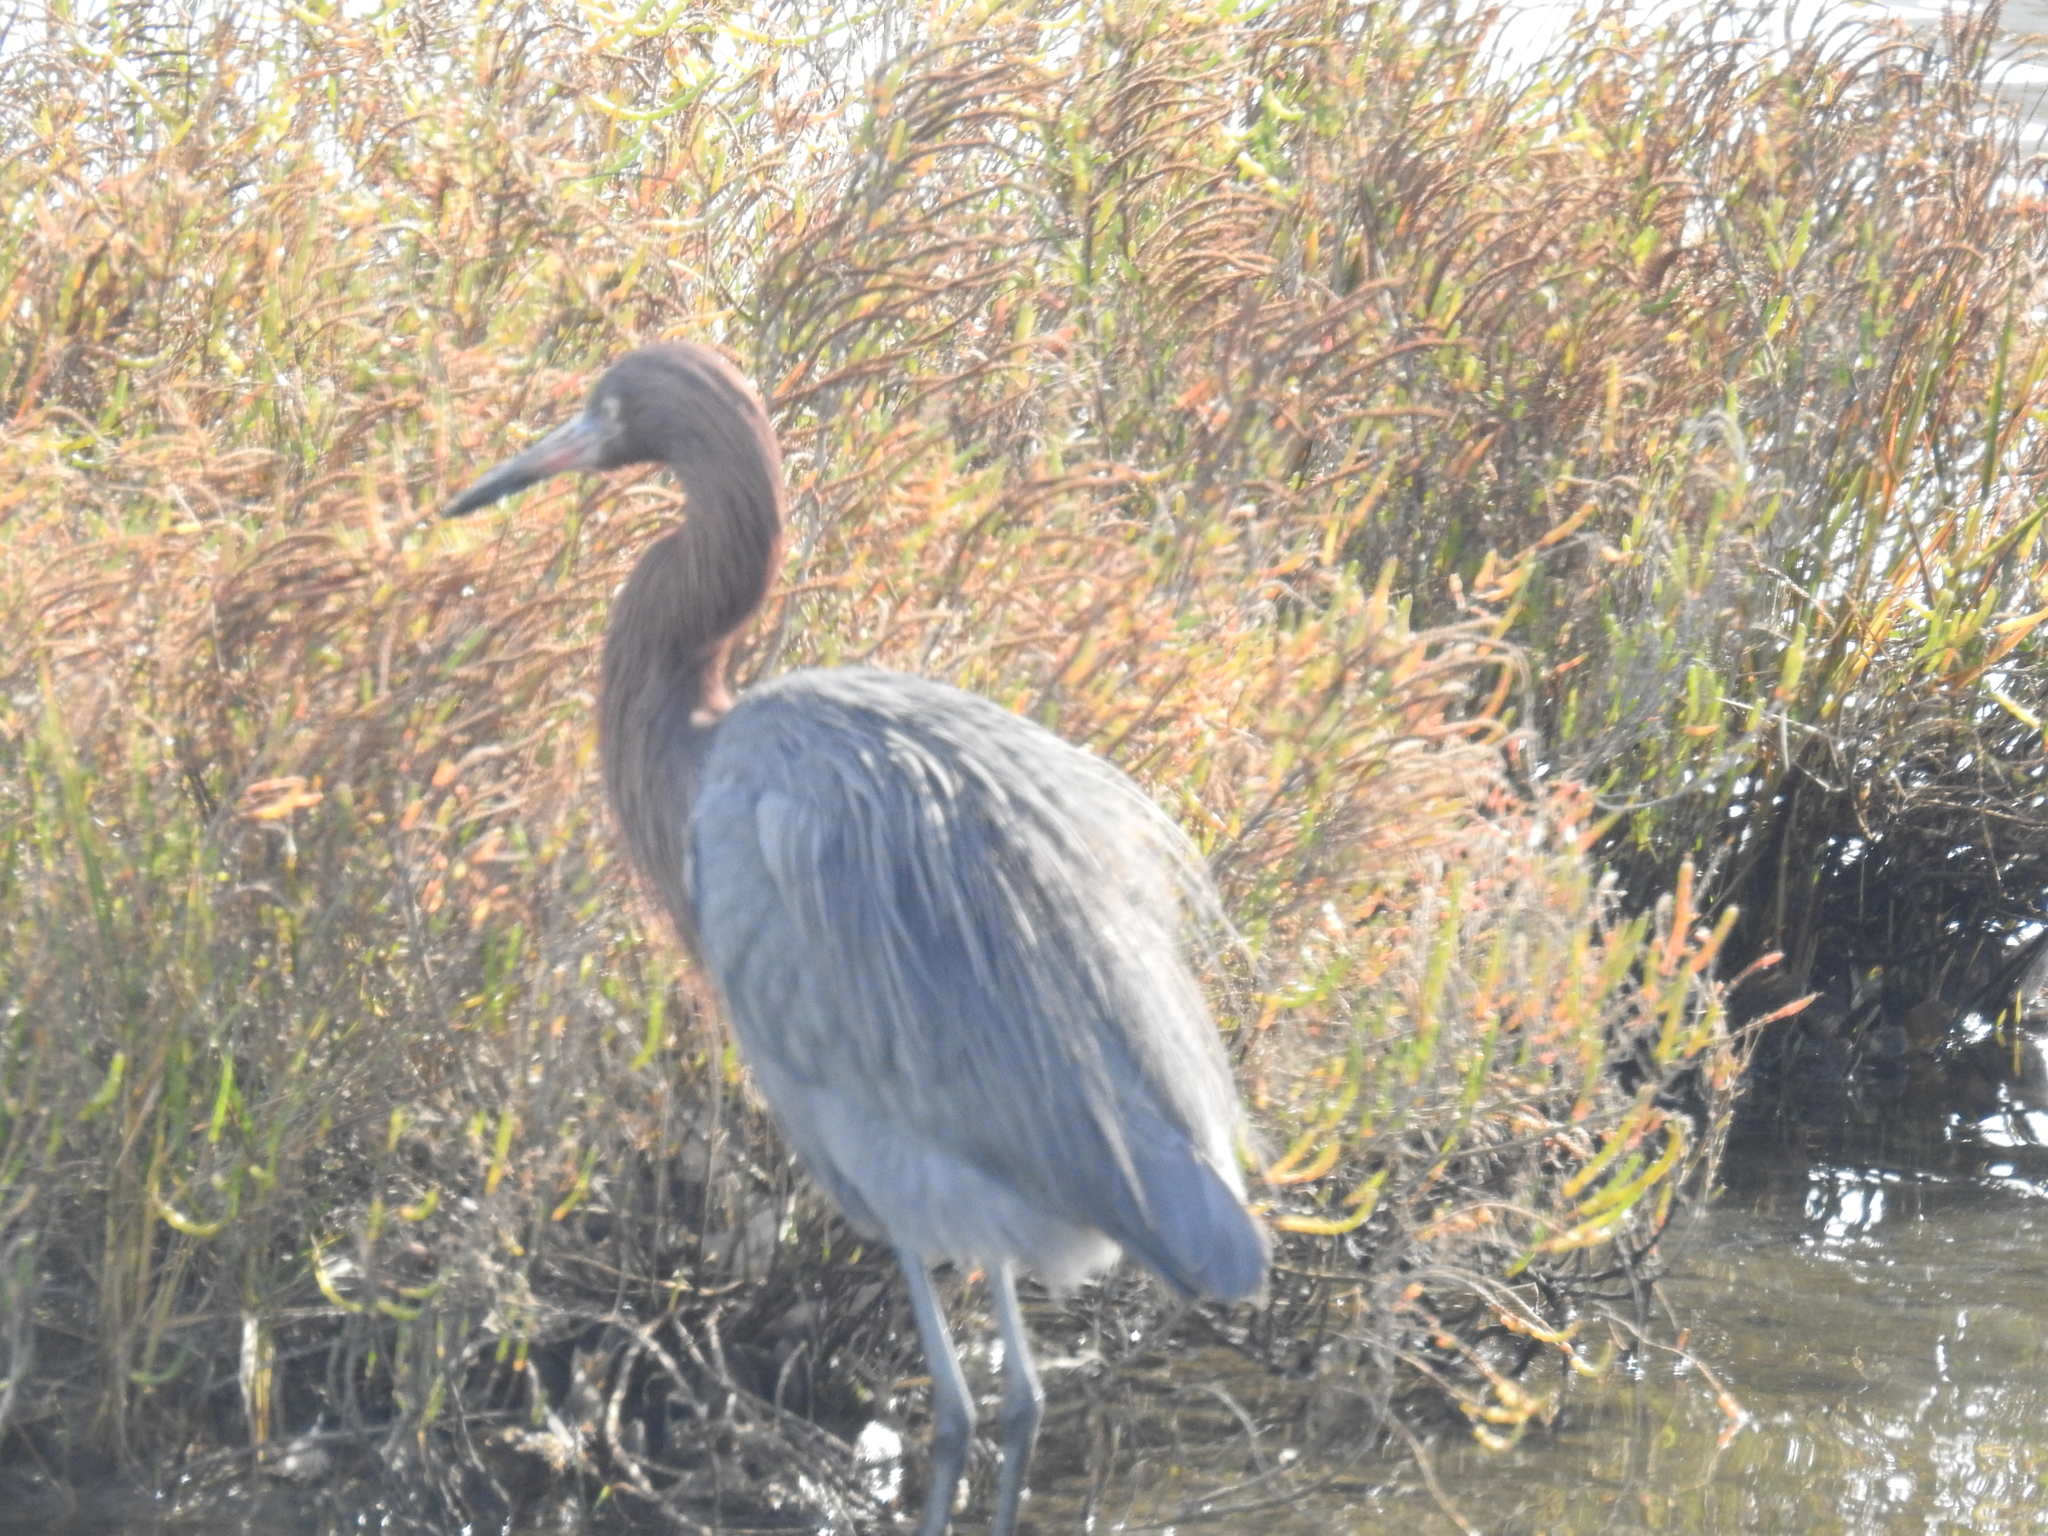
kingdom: Animalia
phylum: Chordata
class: Aves
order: Pelecaniformes
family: Ardeidae
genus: Egretta
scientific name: Egretta rufescens
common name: Reddish egret
